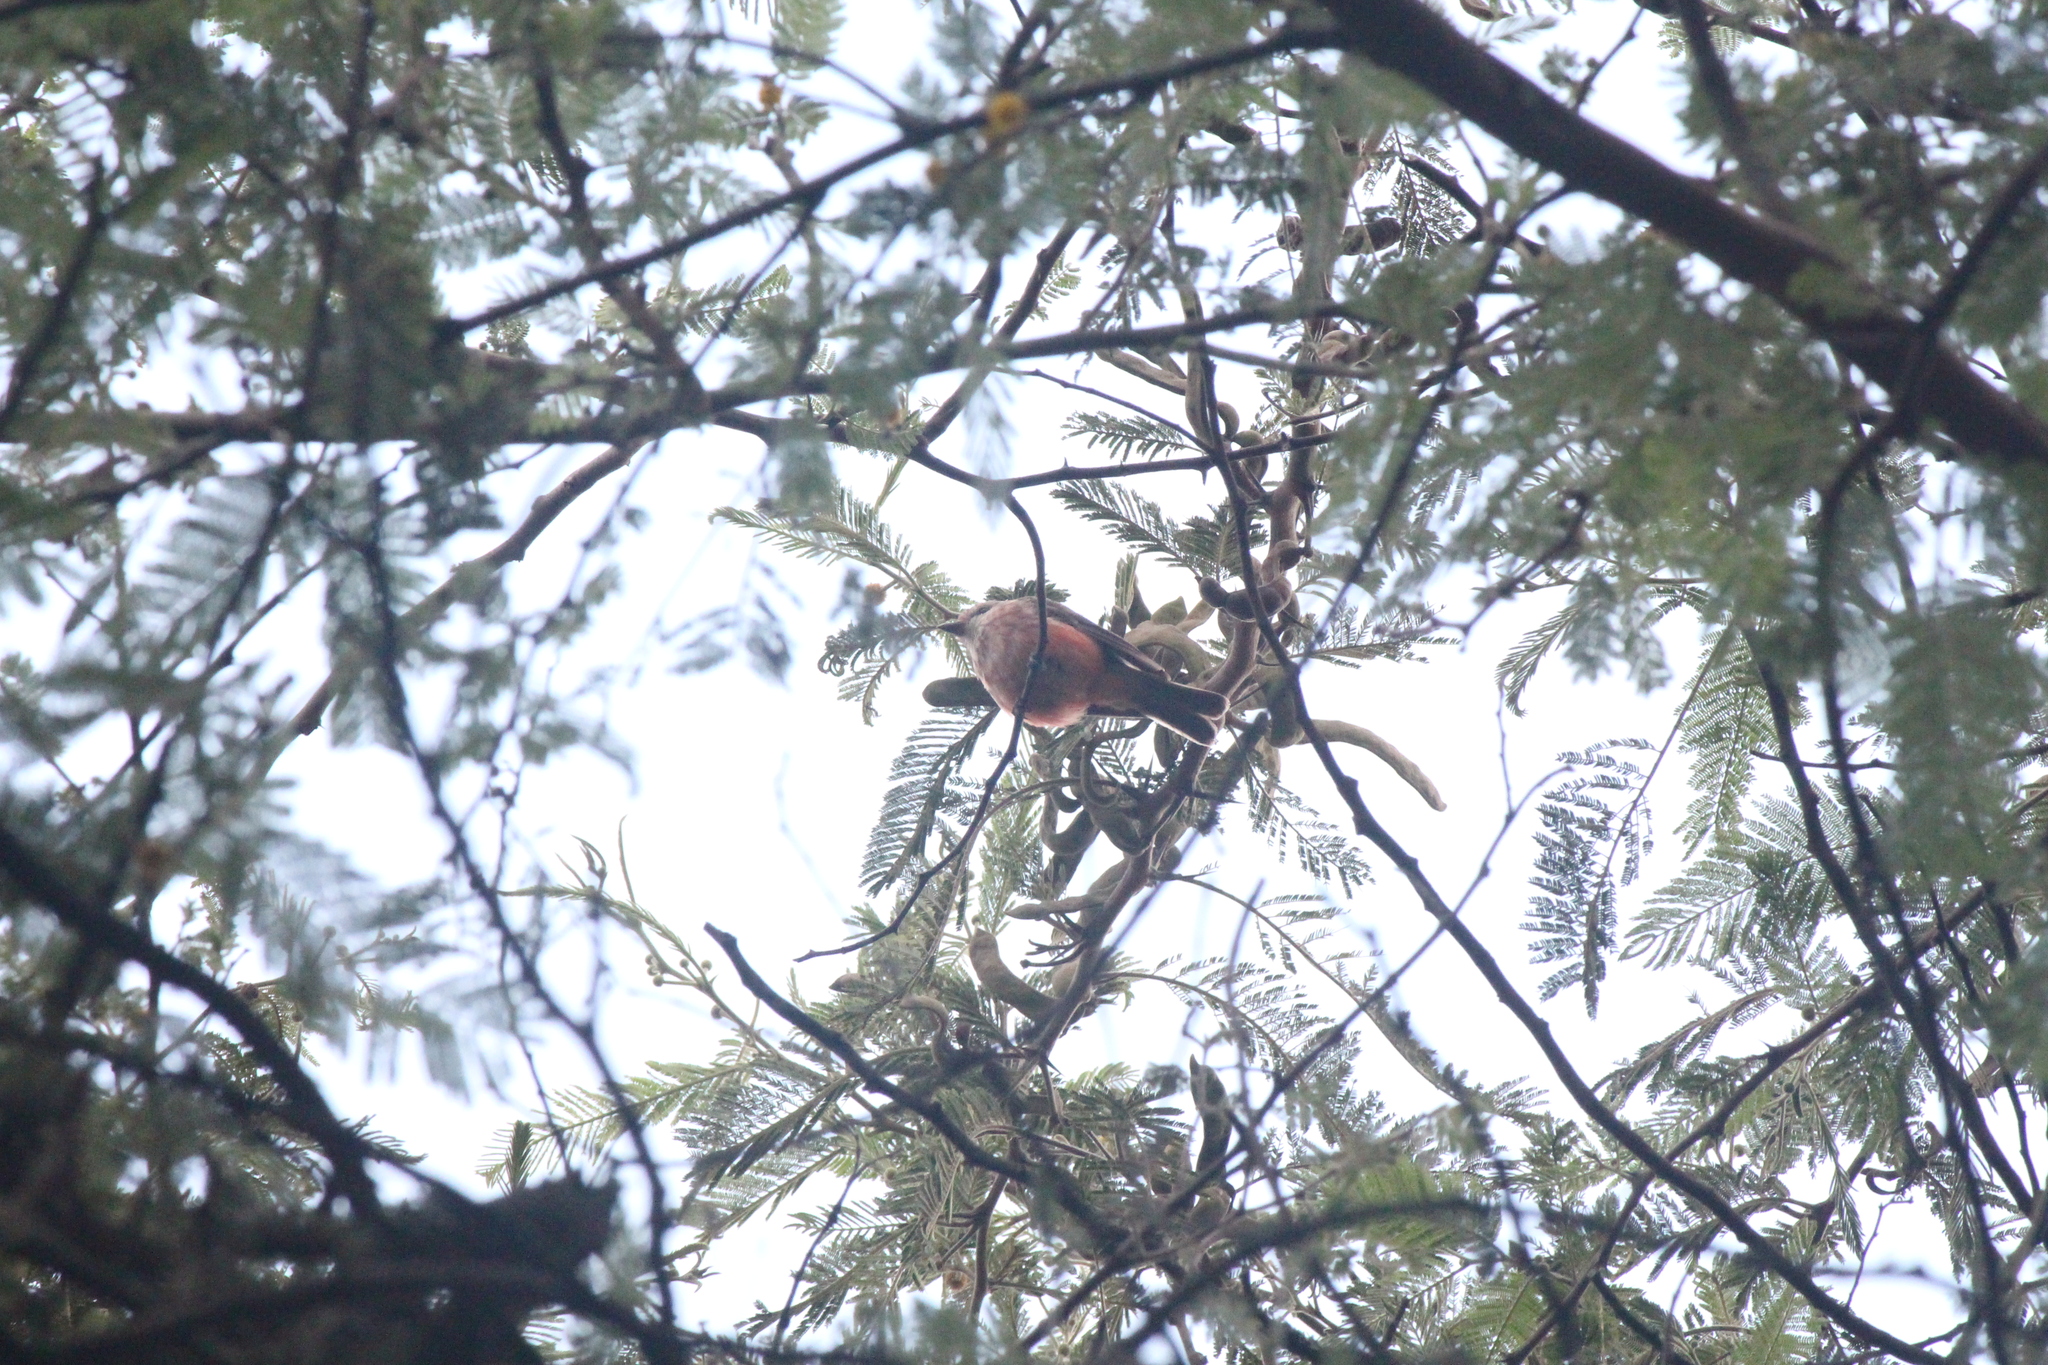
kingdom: Animalia
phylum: Chordata
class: Aves
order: Passeriformes
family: Tyrannidae
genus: Pyrocephalus
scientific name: Pyrocephalus rubinus
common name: Vermilion flycatcher
